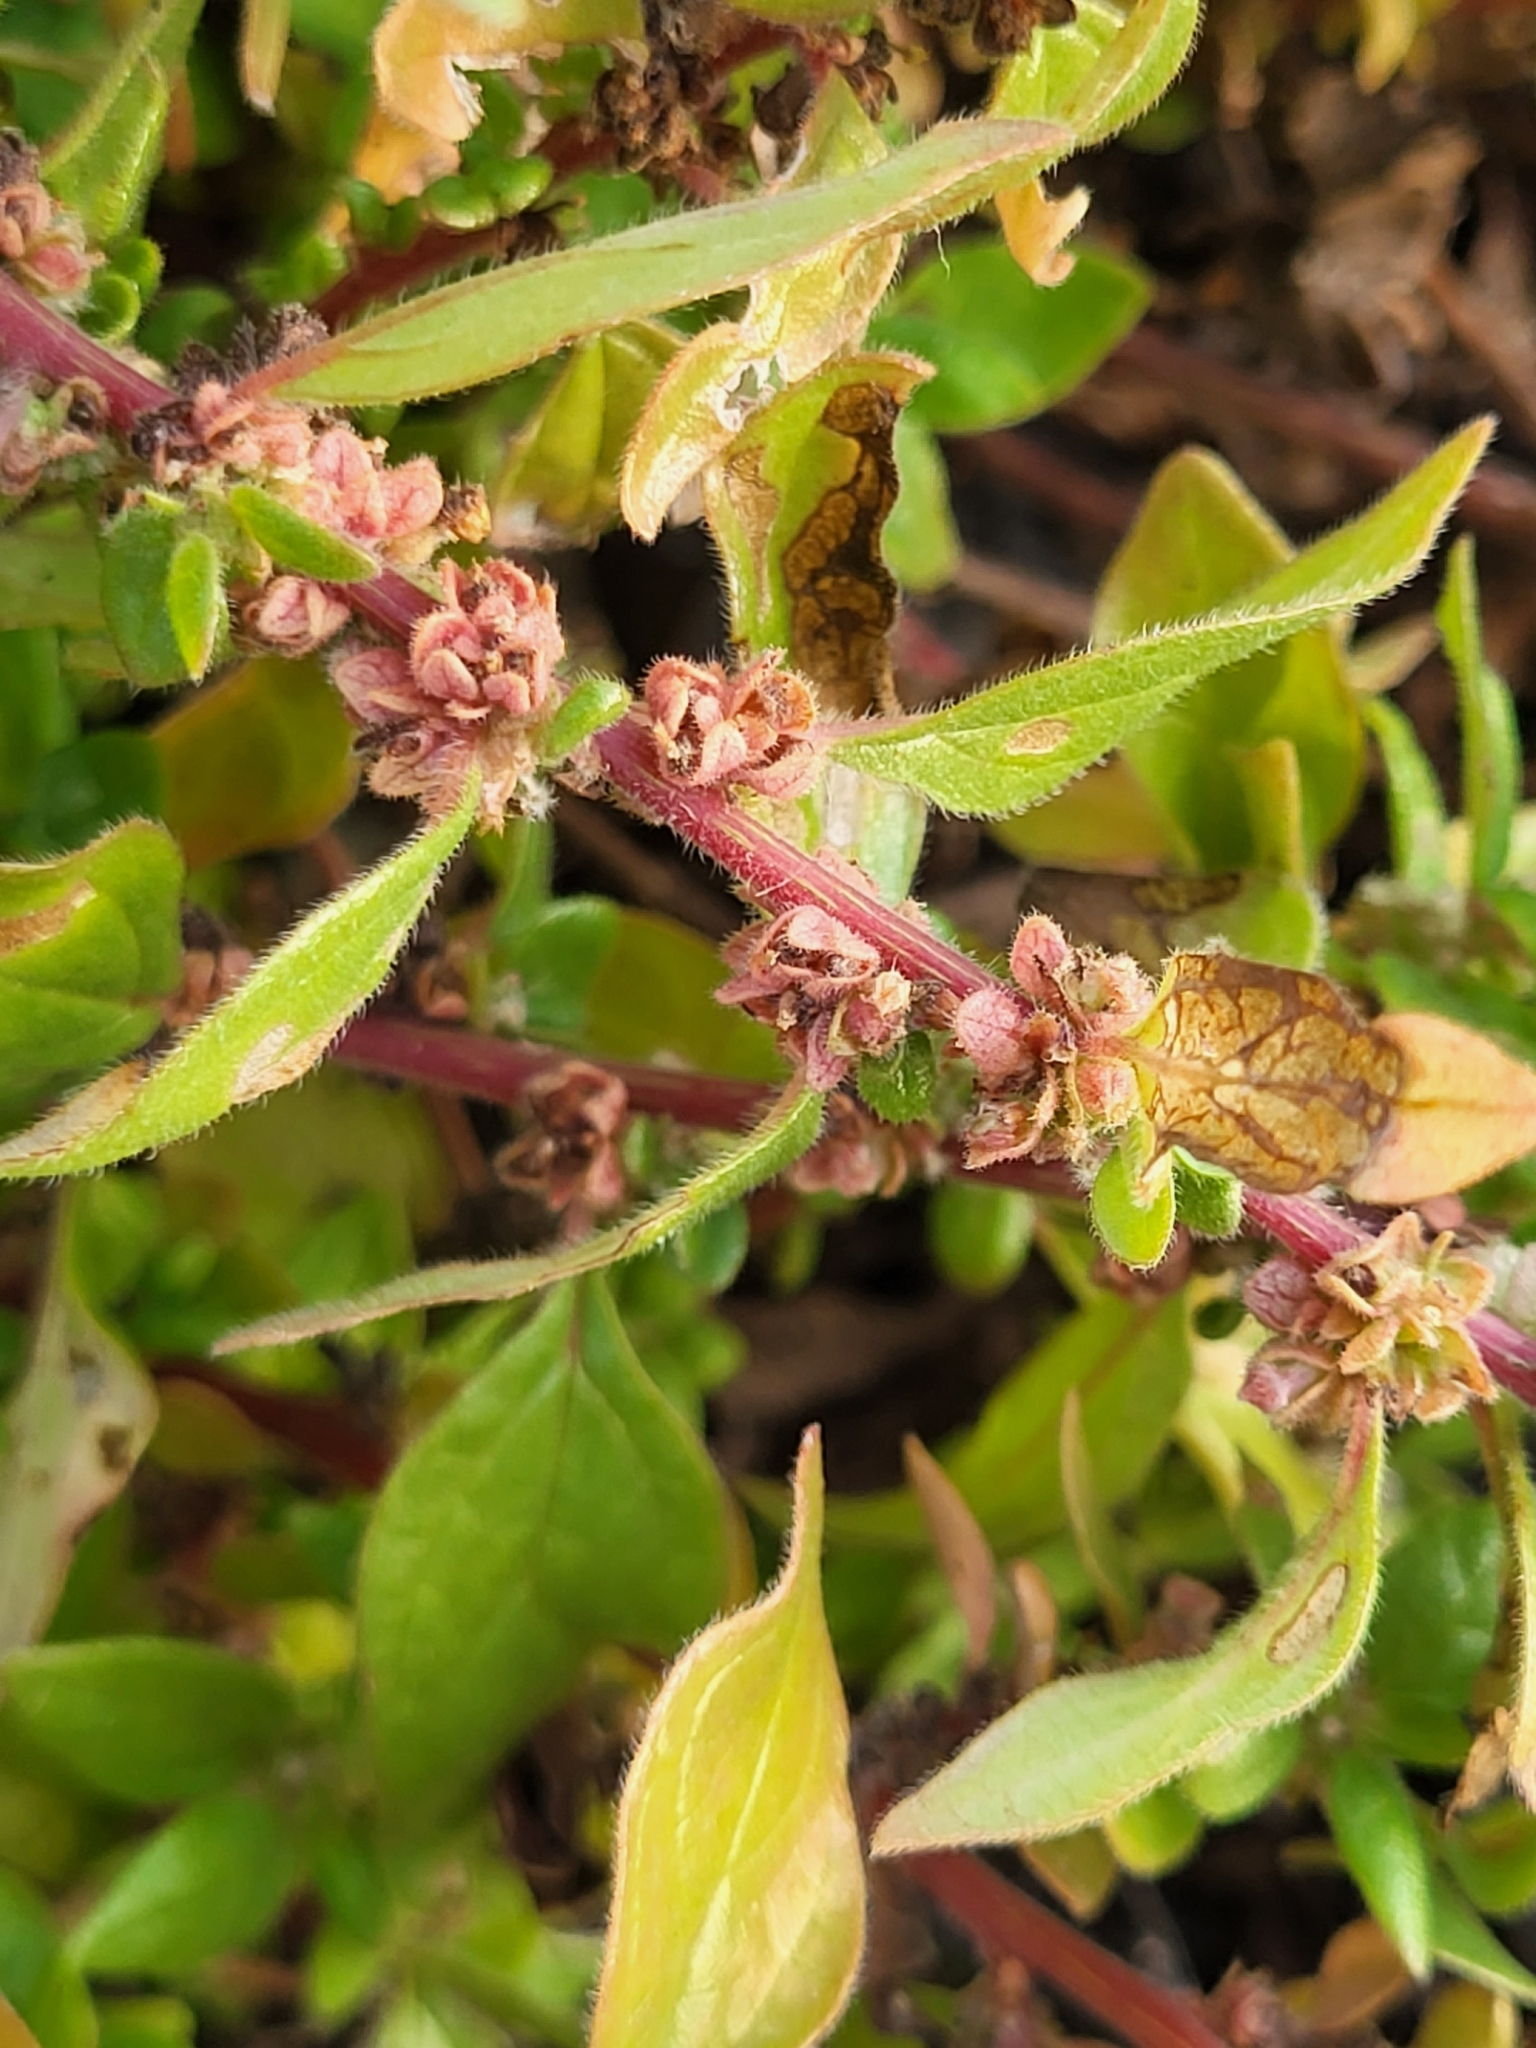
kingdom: Plantae
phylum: Tracheophyta
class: Magnoliopsida
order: Rosales
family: Urticaceae
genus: Parietaria
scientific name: Parietaria judaica
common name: Pellitory-of-the-wall
